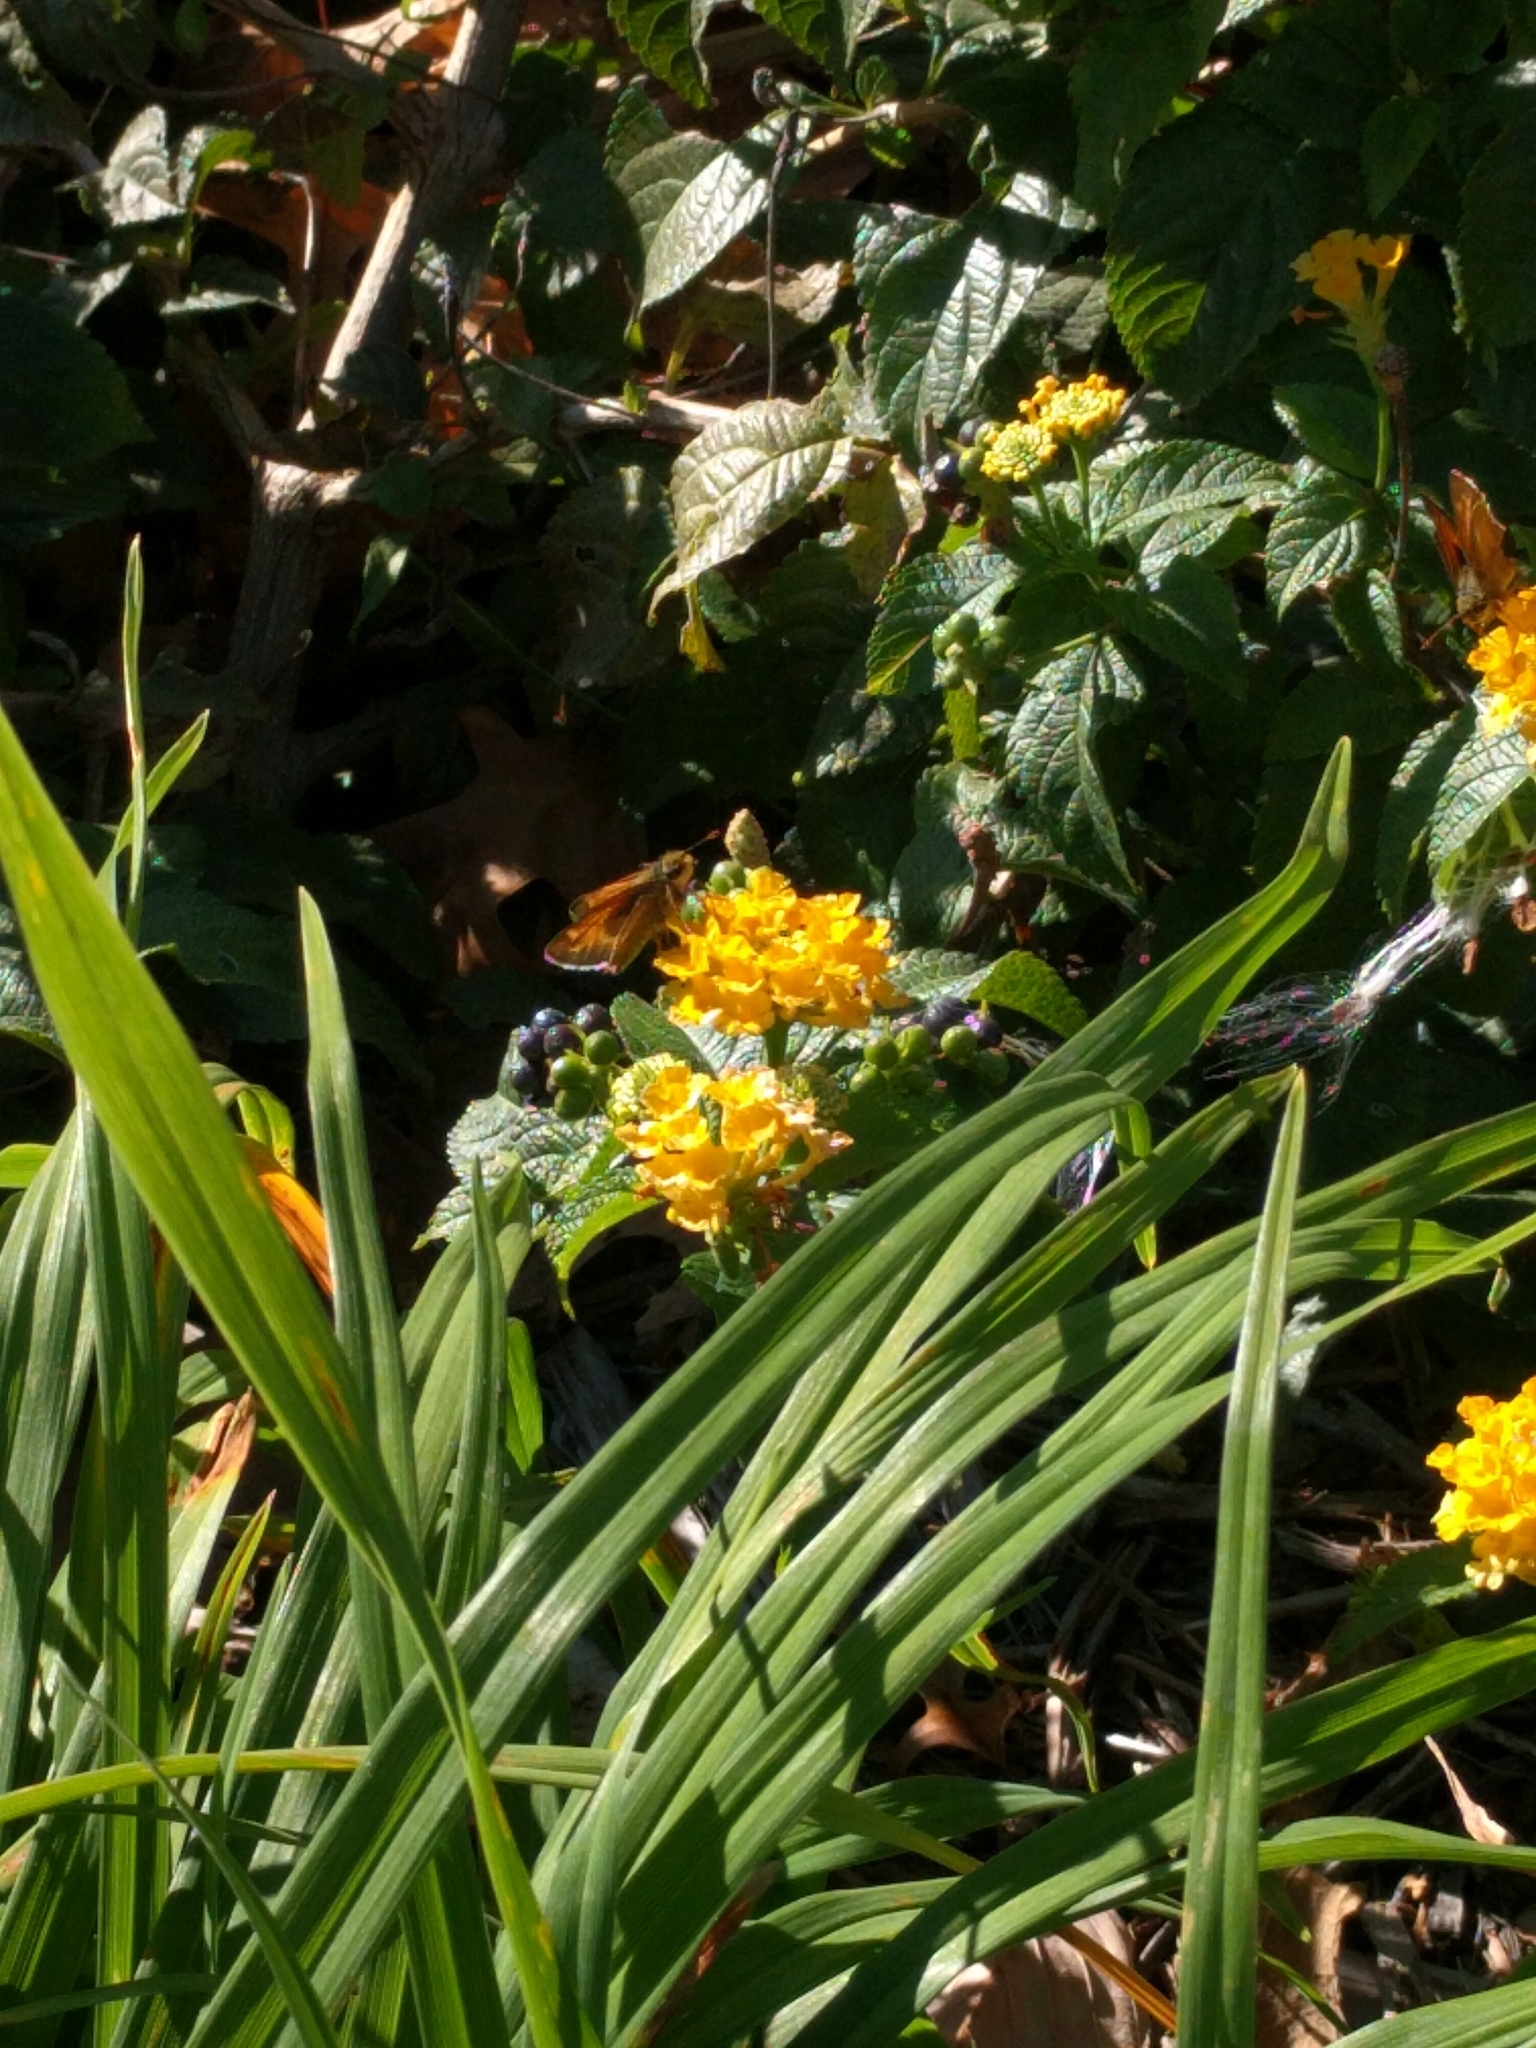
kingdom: Animalia
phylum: Arthropoda
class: Insecta
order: Lepidoptera
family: Hesperiidae
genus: Atalopedes
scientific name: Atalopedes
